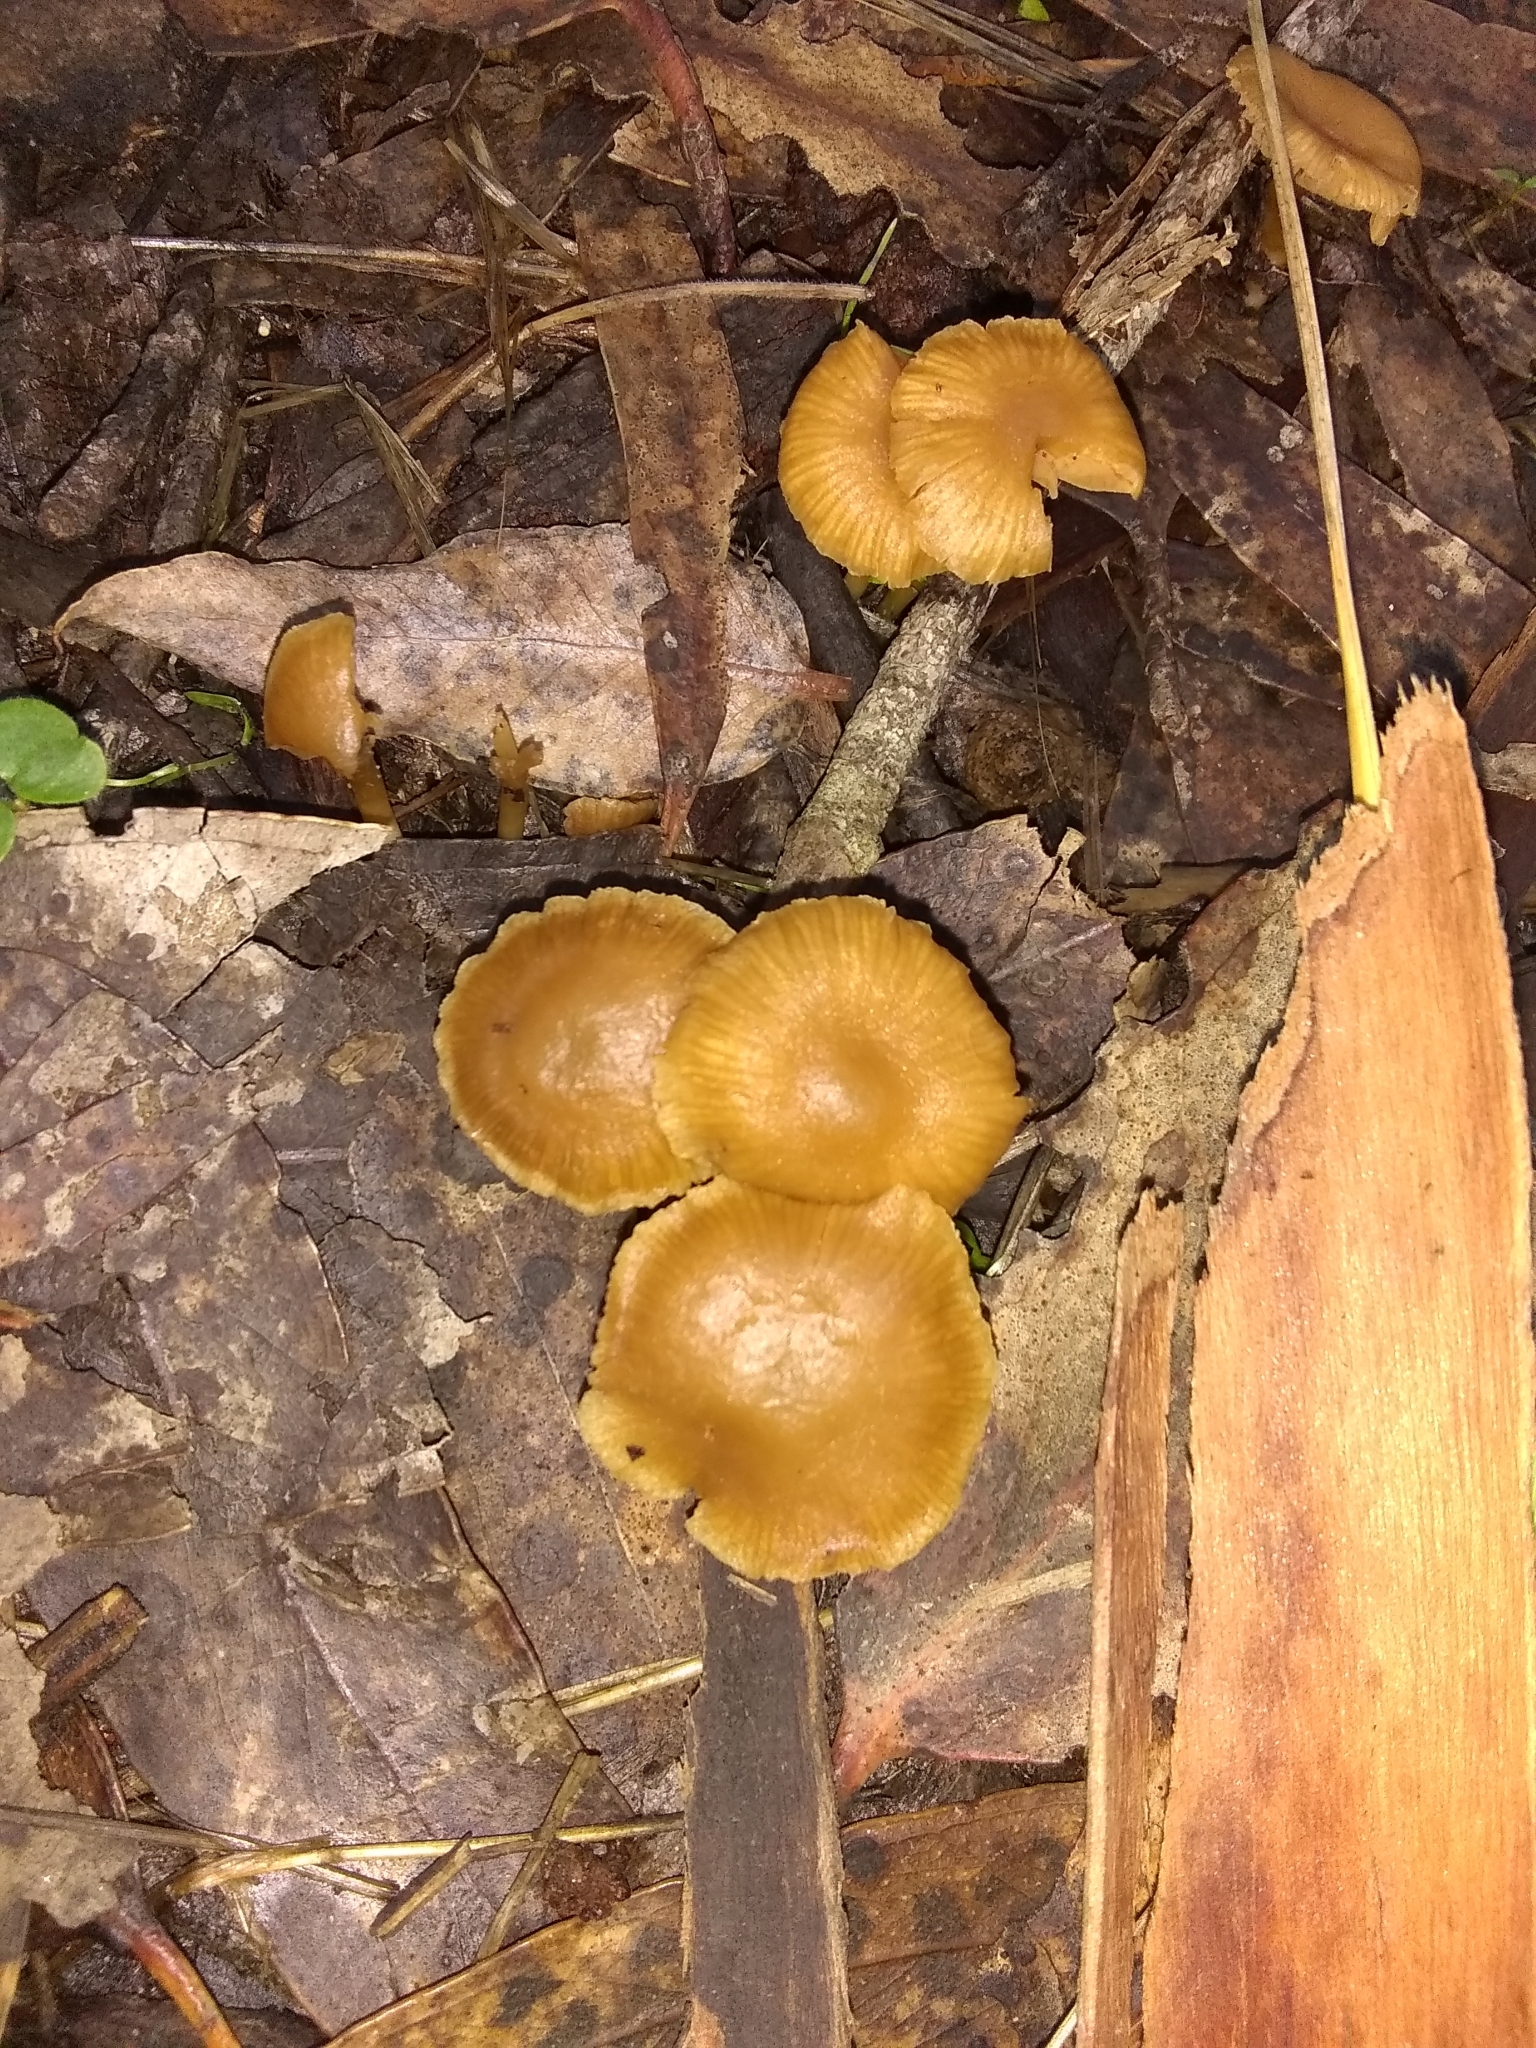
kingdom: Fungi
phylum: Basidiomycota
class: Agaricomycetes
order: Agaricales
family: Tubariaceae
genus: Tubaria
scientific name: Tubaria furfuracea
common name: Scurfy twiglet
